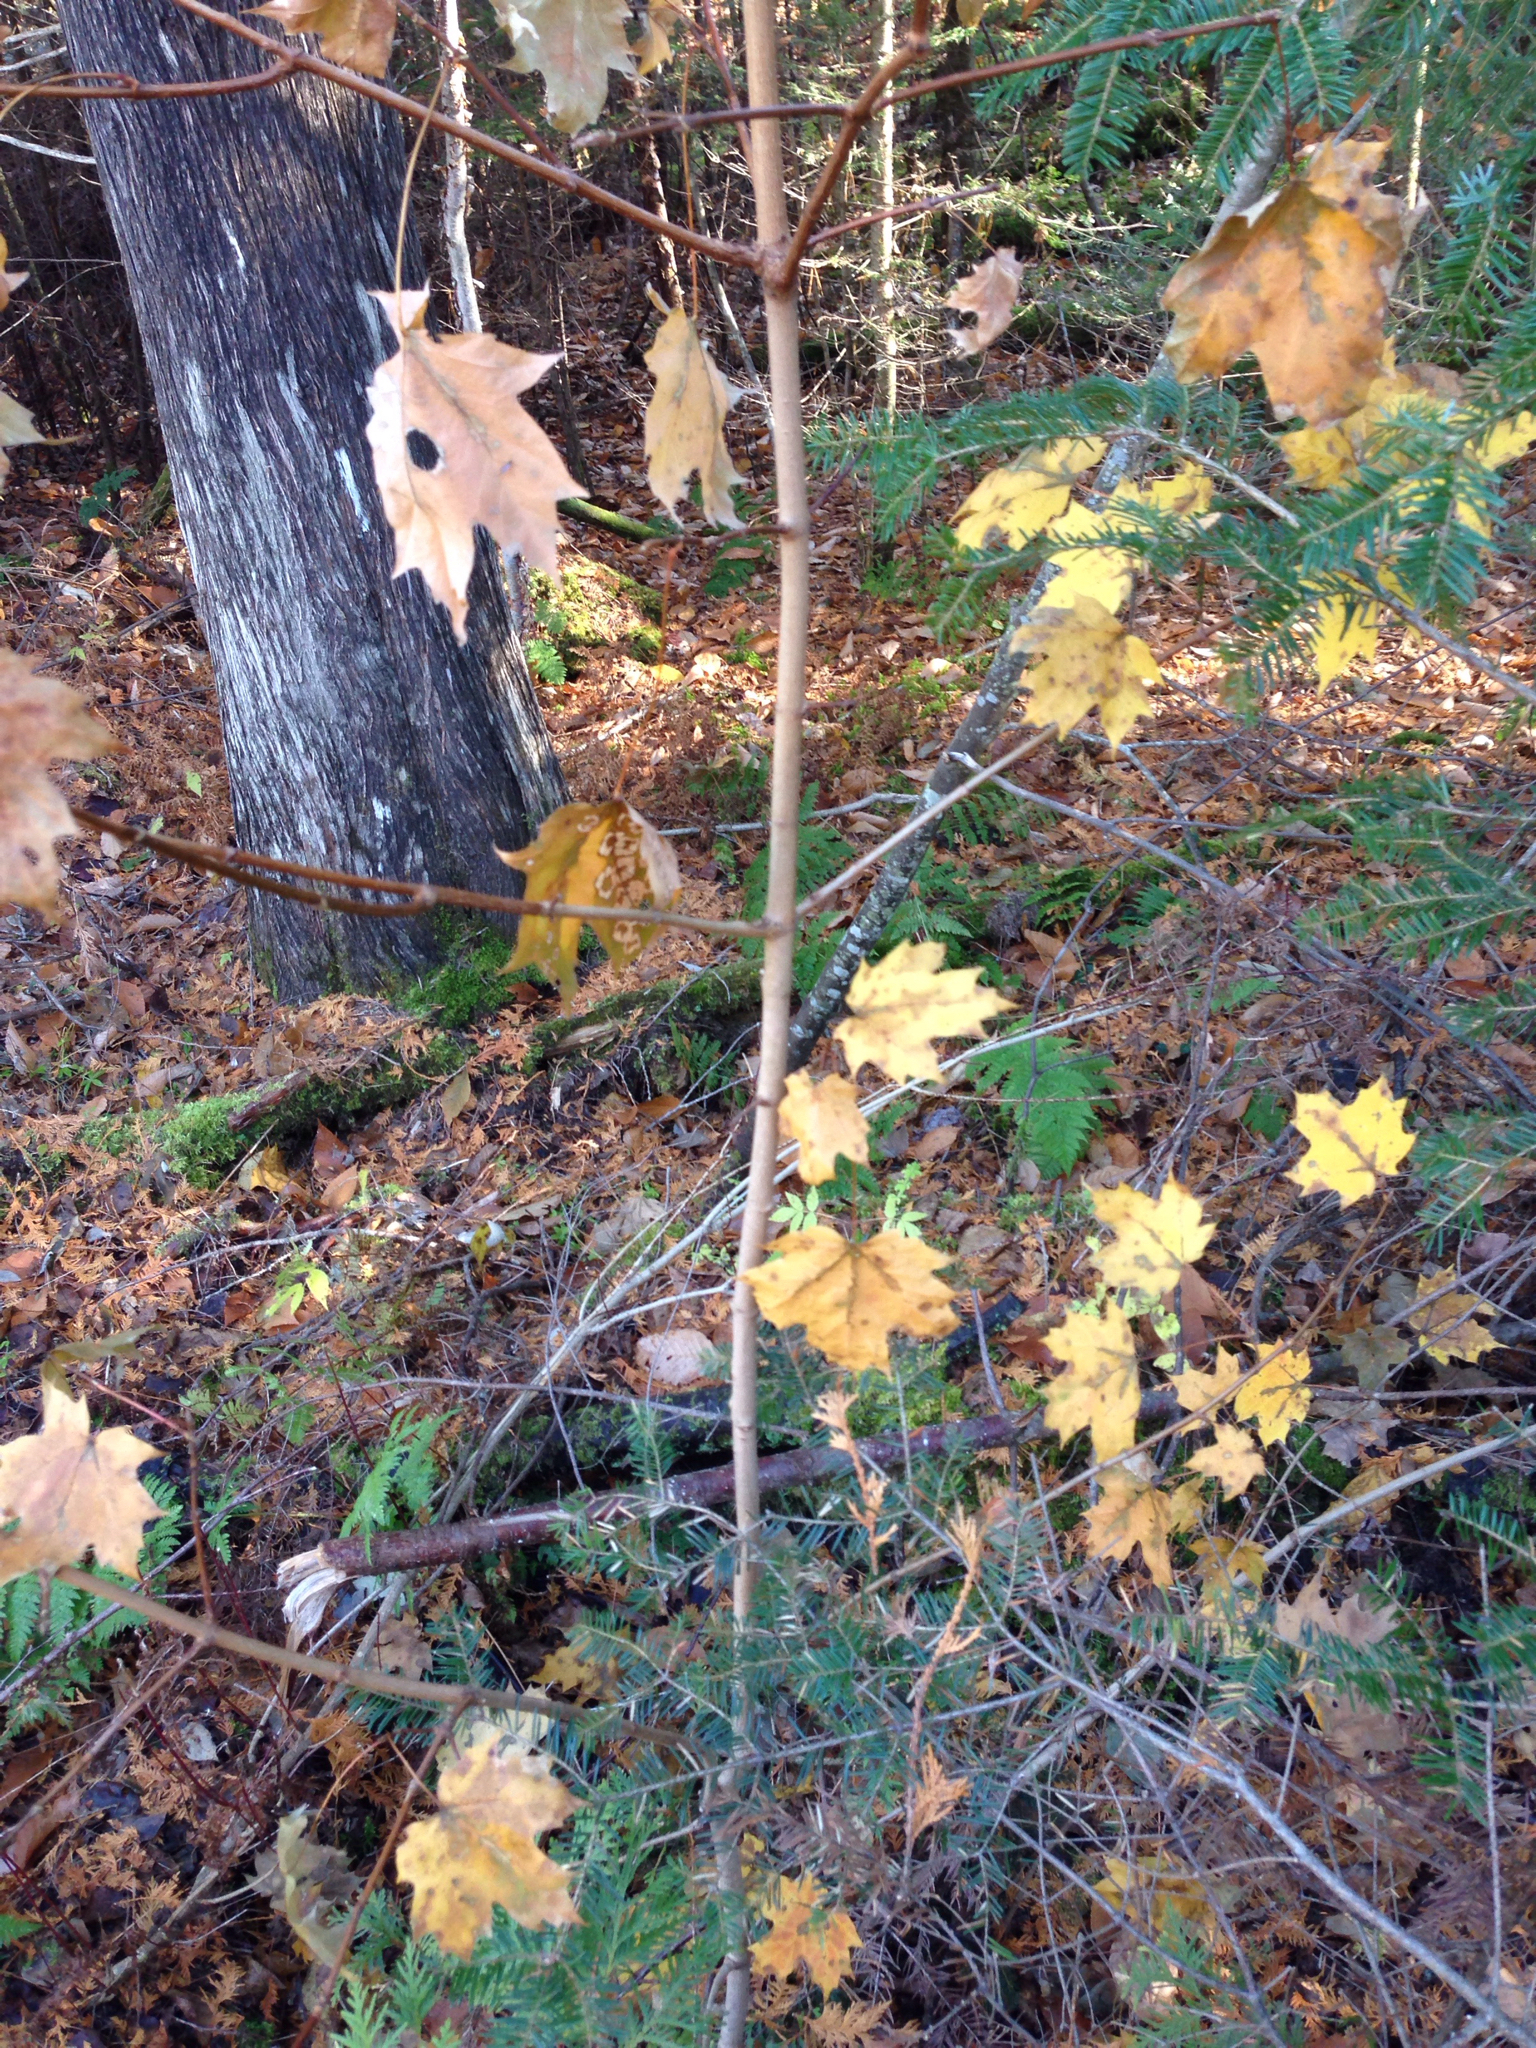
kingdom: Plantae
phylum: Tracheophyta
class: Magnoliopsida
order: Sapindales
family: Sapindaceae
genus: Acer
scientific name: Acer saccharum
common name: Sugar maple
